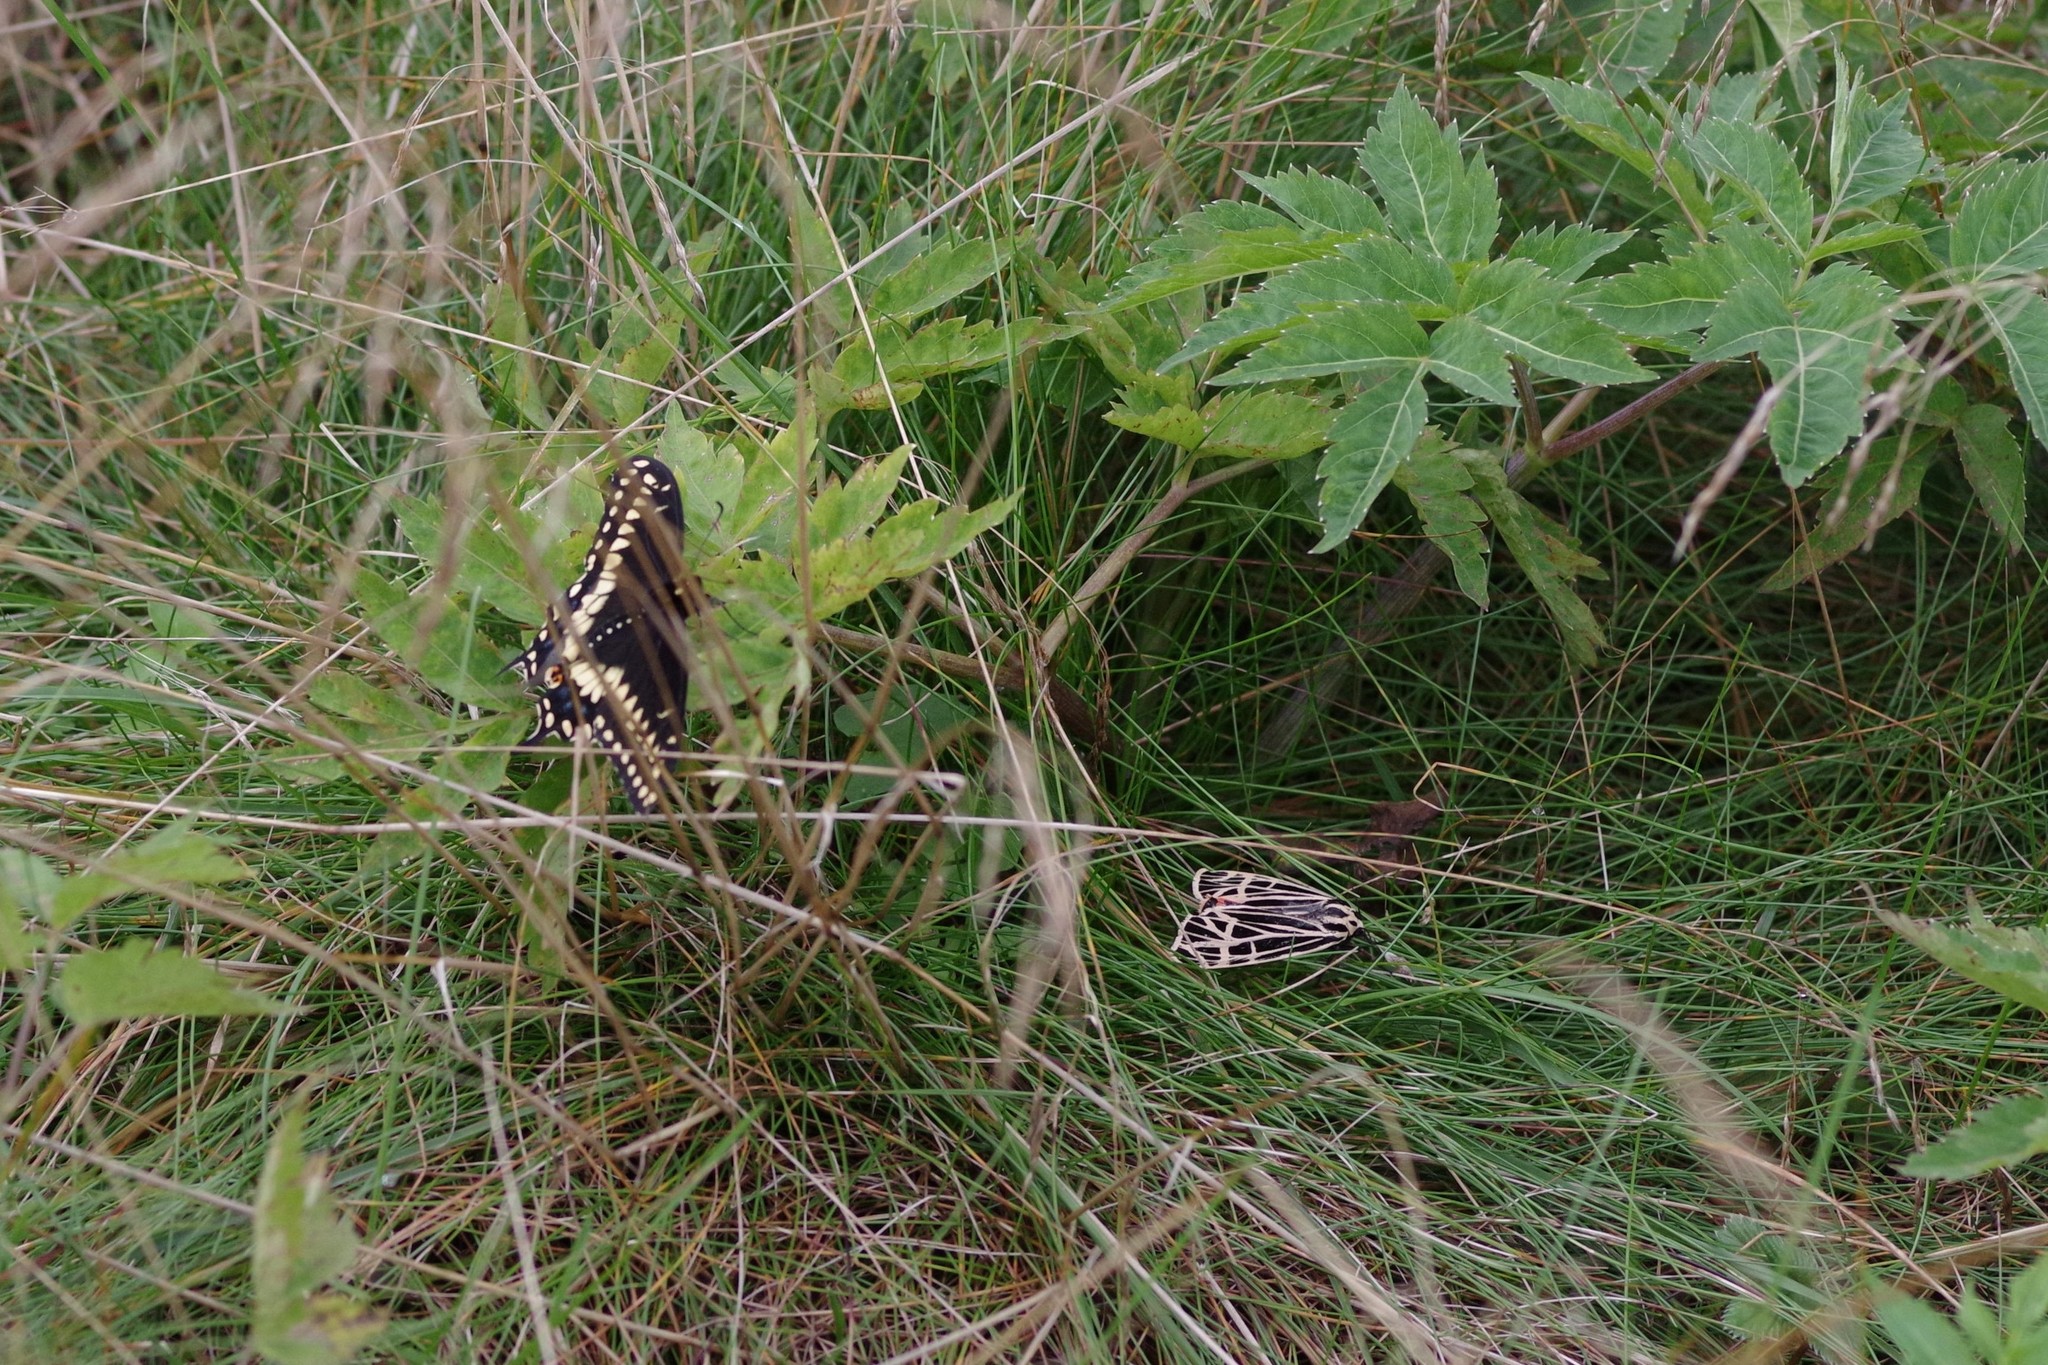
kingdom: Animalia
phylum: Arthropoda
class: Insecta
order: Lepidoptera
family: Papilionidae
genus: Papilio
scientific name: Papilio polyxenes
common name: Black swallowtail
